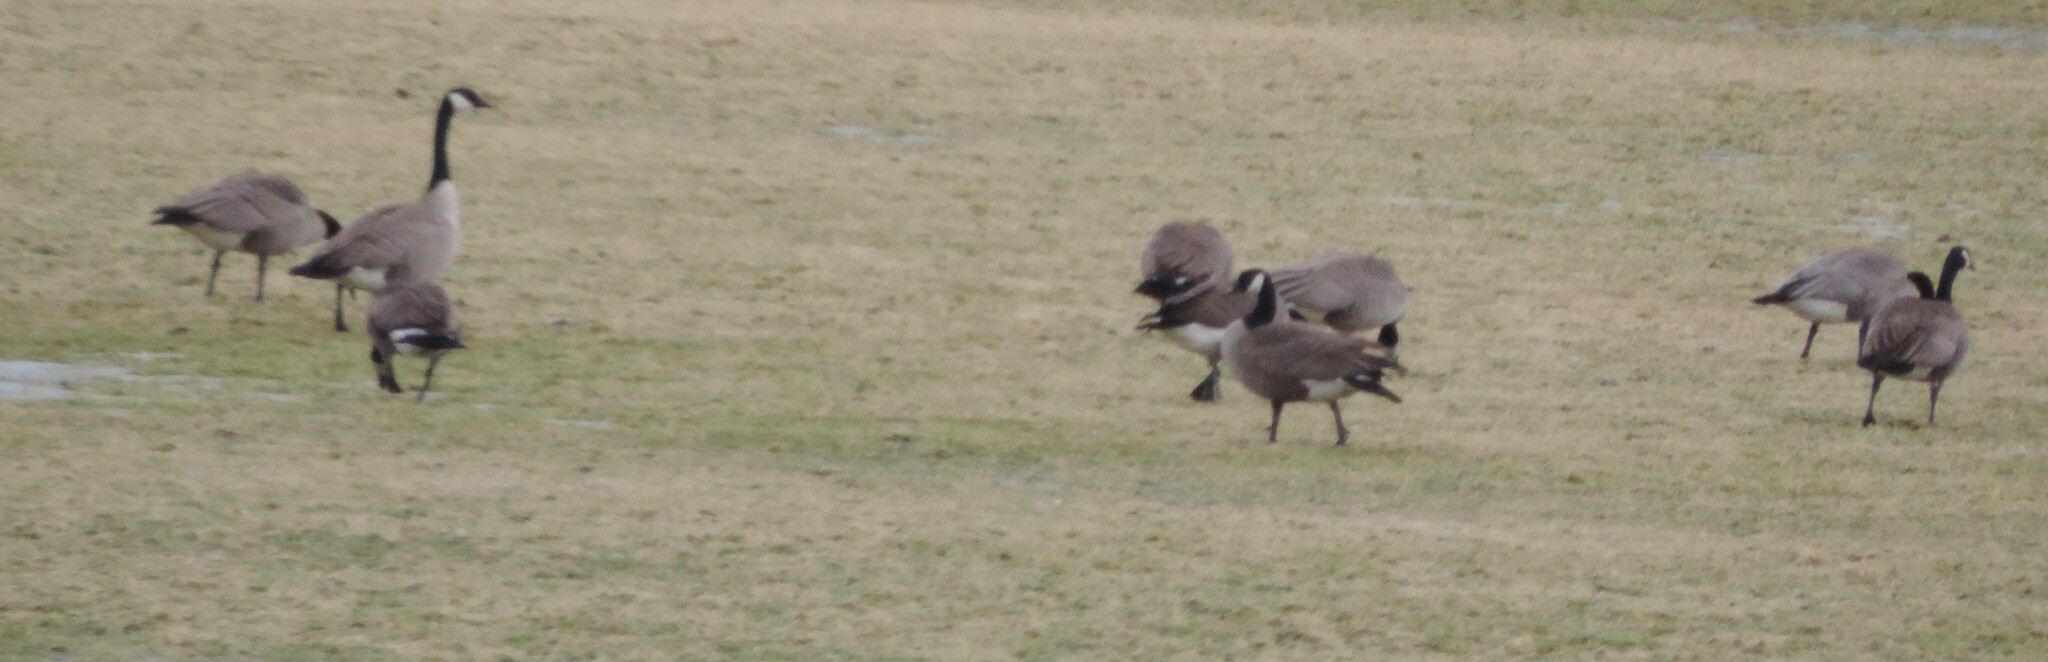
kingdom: Animalia
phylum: Chordata
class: Aves
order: Anseriformes
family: Anatidae
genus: Branta
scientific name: Branta canadensis
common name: Canada goose
